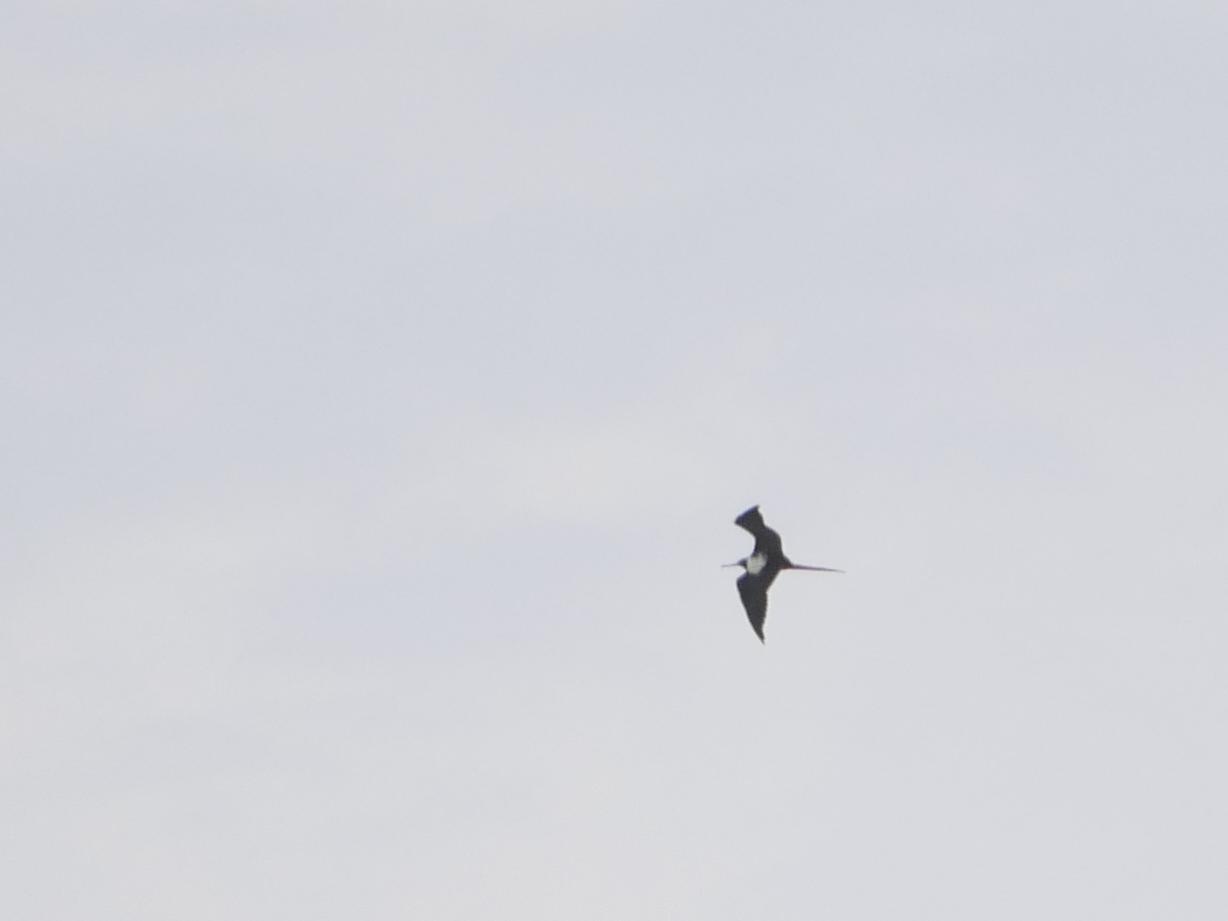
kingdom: Animalia
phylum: Chordata
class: Aves
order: Suliformes
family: Fregatidae
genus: Fregata
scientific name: Fregata magnificens
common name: Magnificent frigatebird
